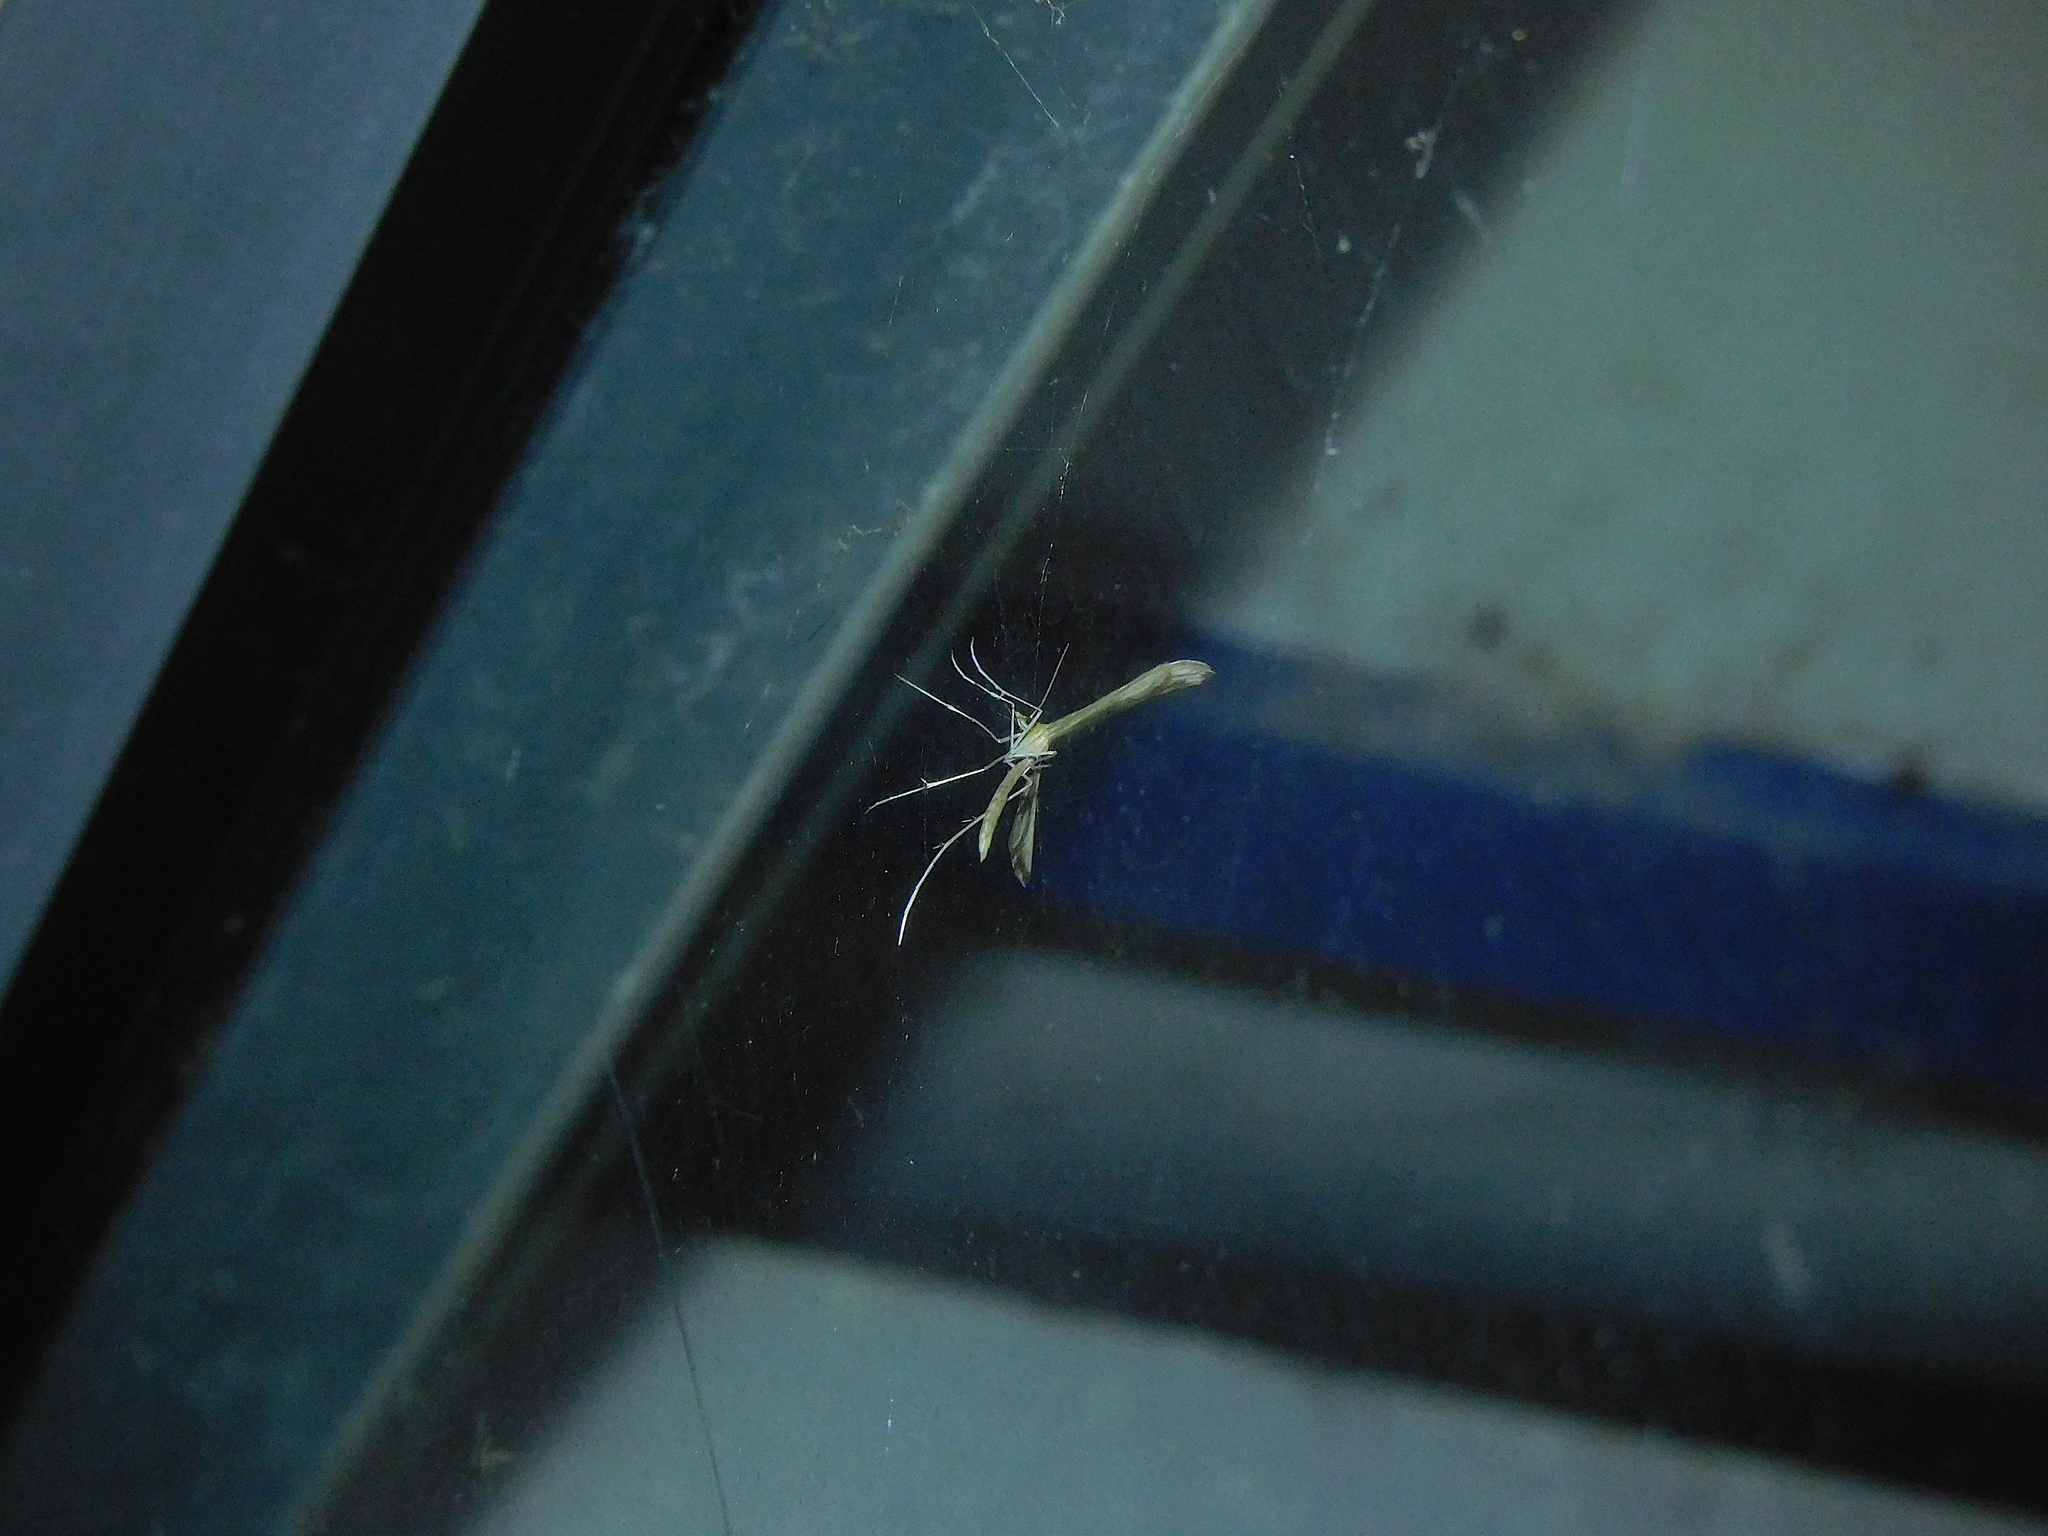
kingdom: Animalia
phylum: Arthropoda
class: Insecta
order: Lepidoptera
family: Pterophoridae
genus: Stenoptilia
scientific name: Stenoptilia zophodactylus
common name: Dowdy plume
